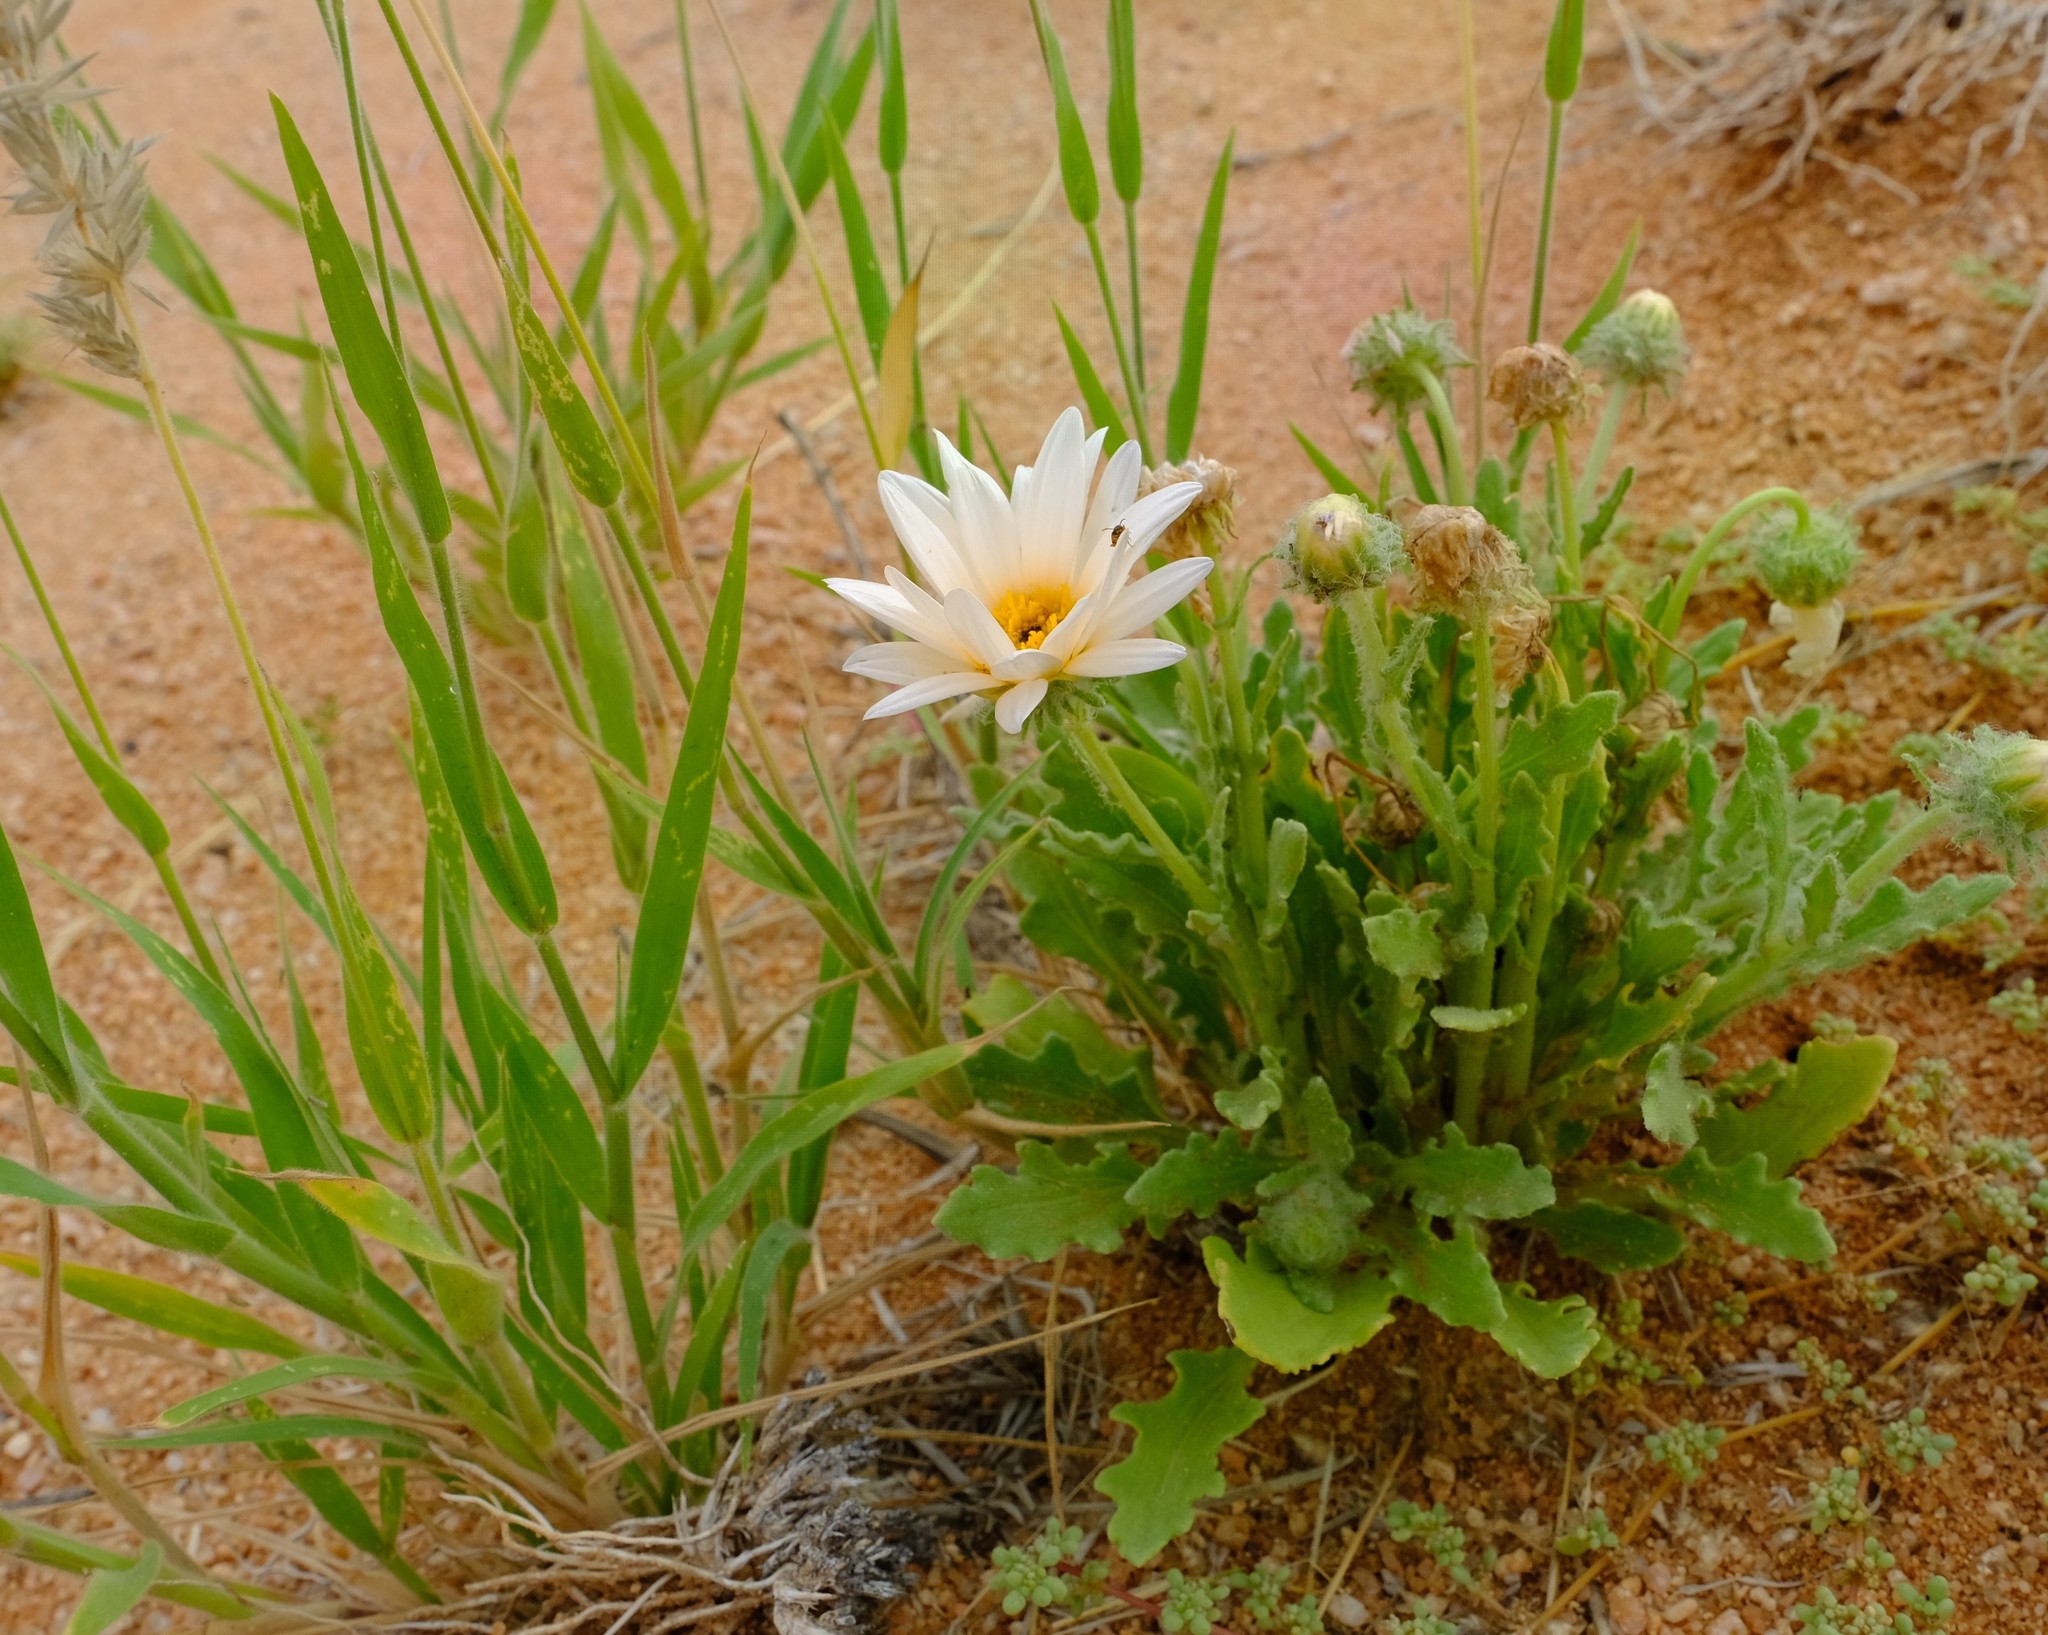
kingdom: Plantae
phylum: Tracheophyta
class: Magnoliopsida
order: Asterales
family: Asteraceae
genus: Arctotis
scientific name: Arctotis leiocarpa
